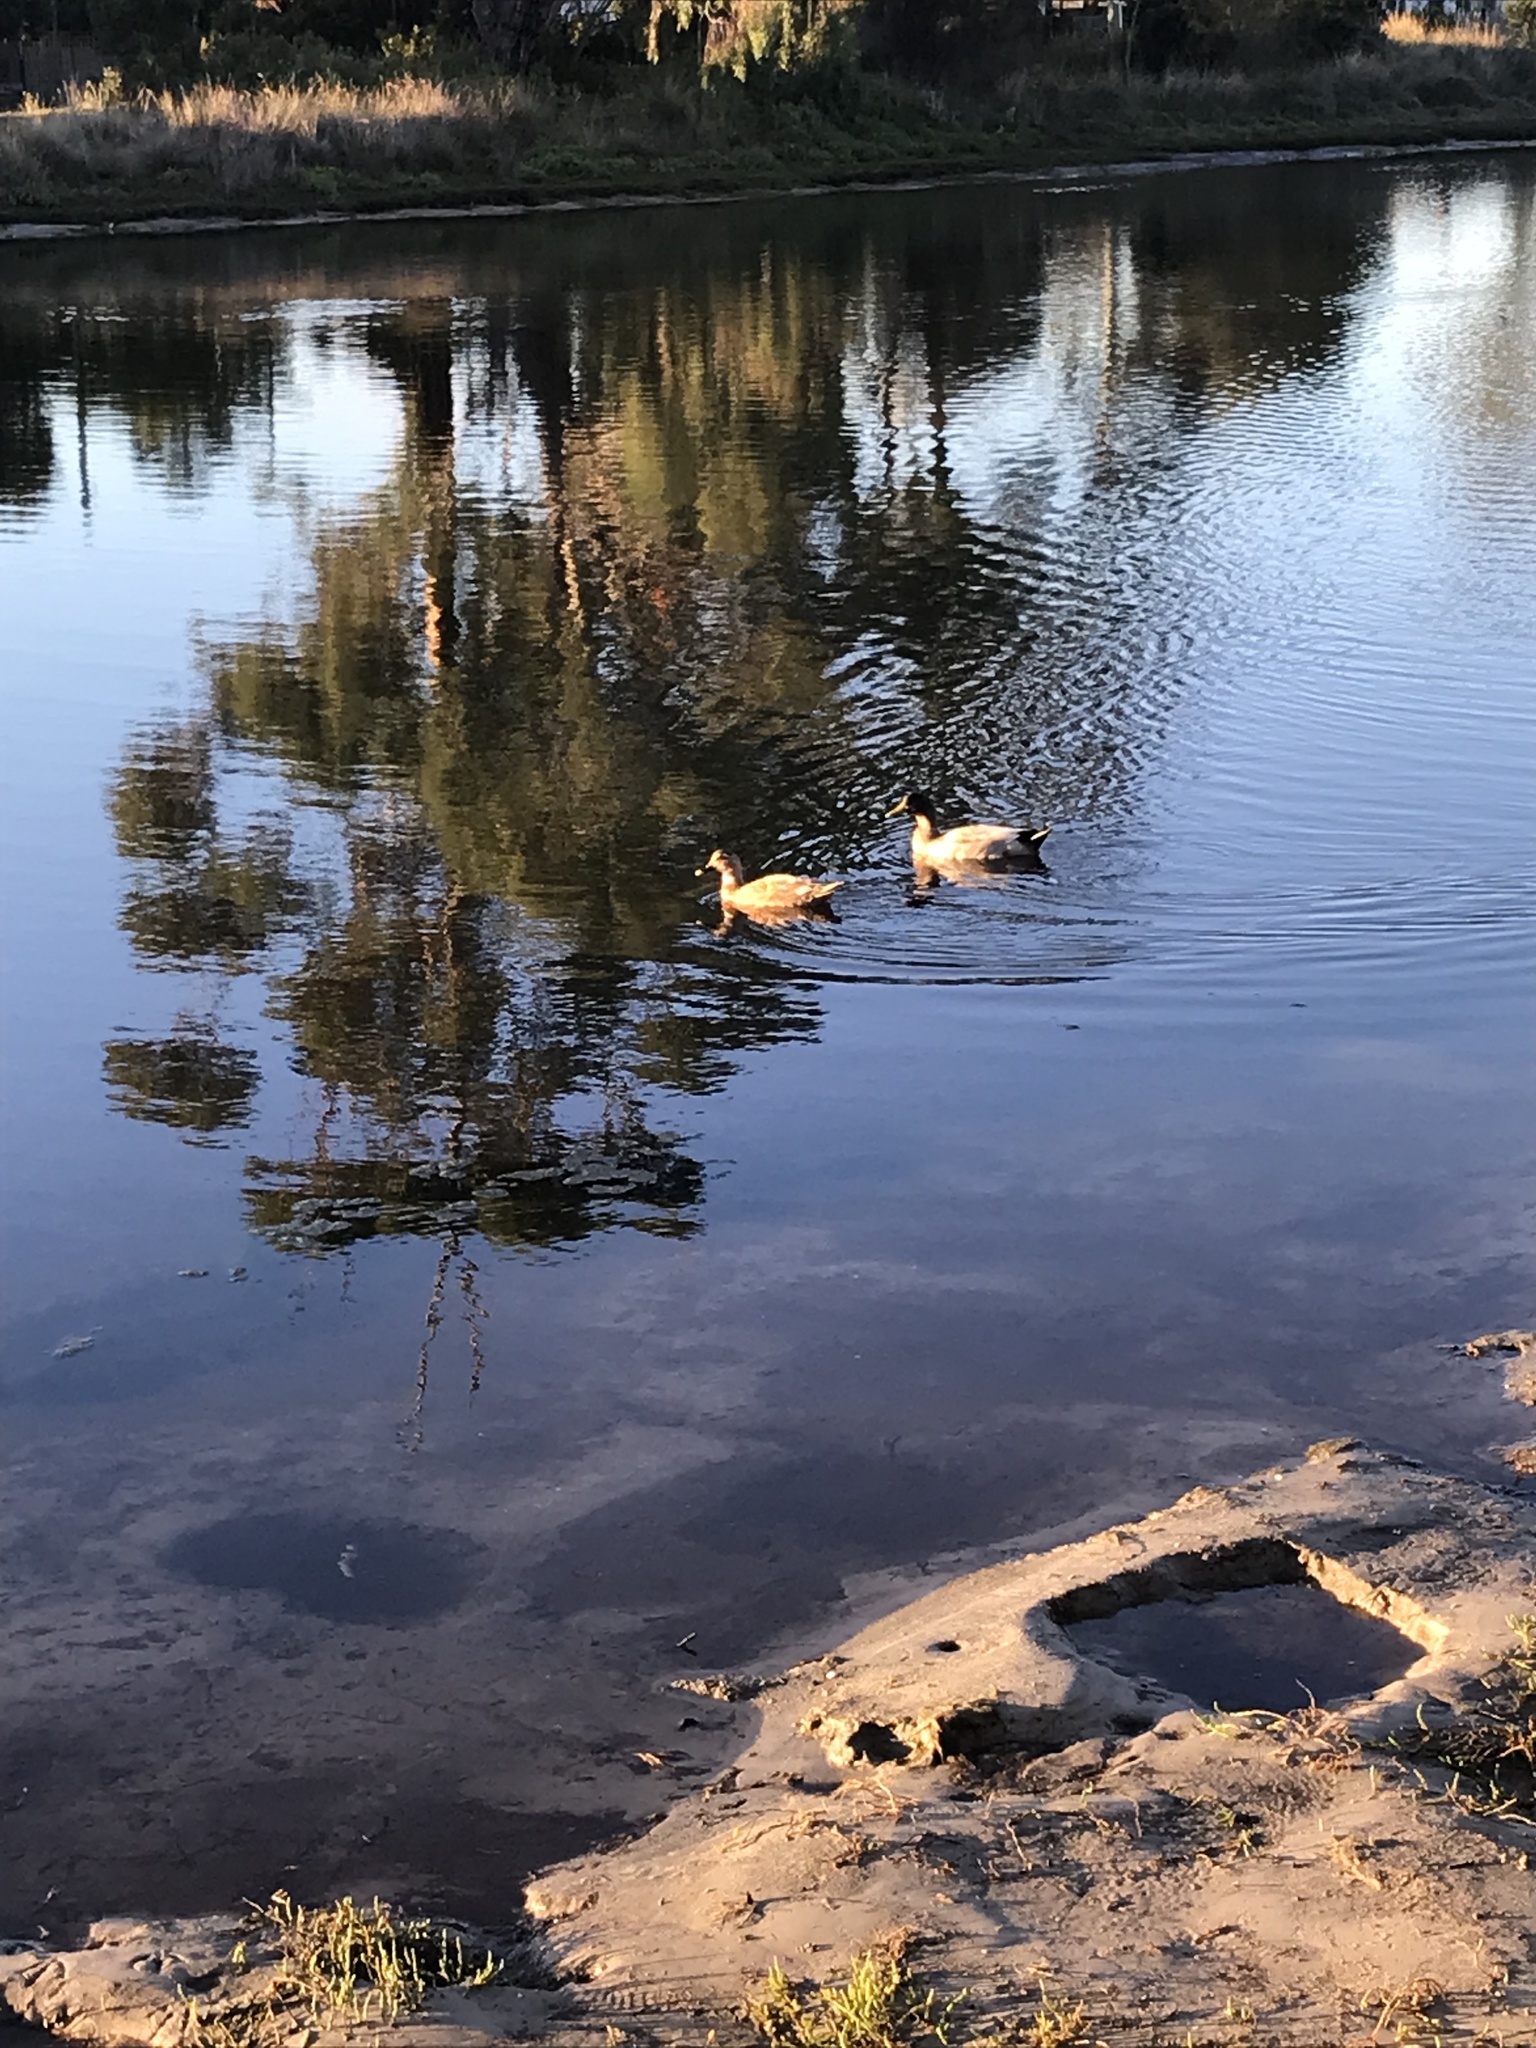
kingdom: Animalia
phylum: Chordata
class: Aves
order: Anseriformes
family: Anatidae
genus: Anas
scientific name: Anas platyrhynchos
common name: Mallard
